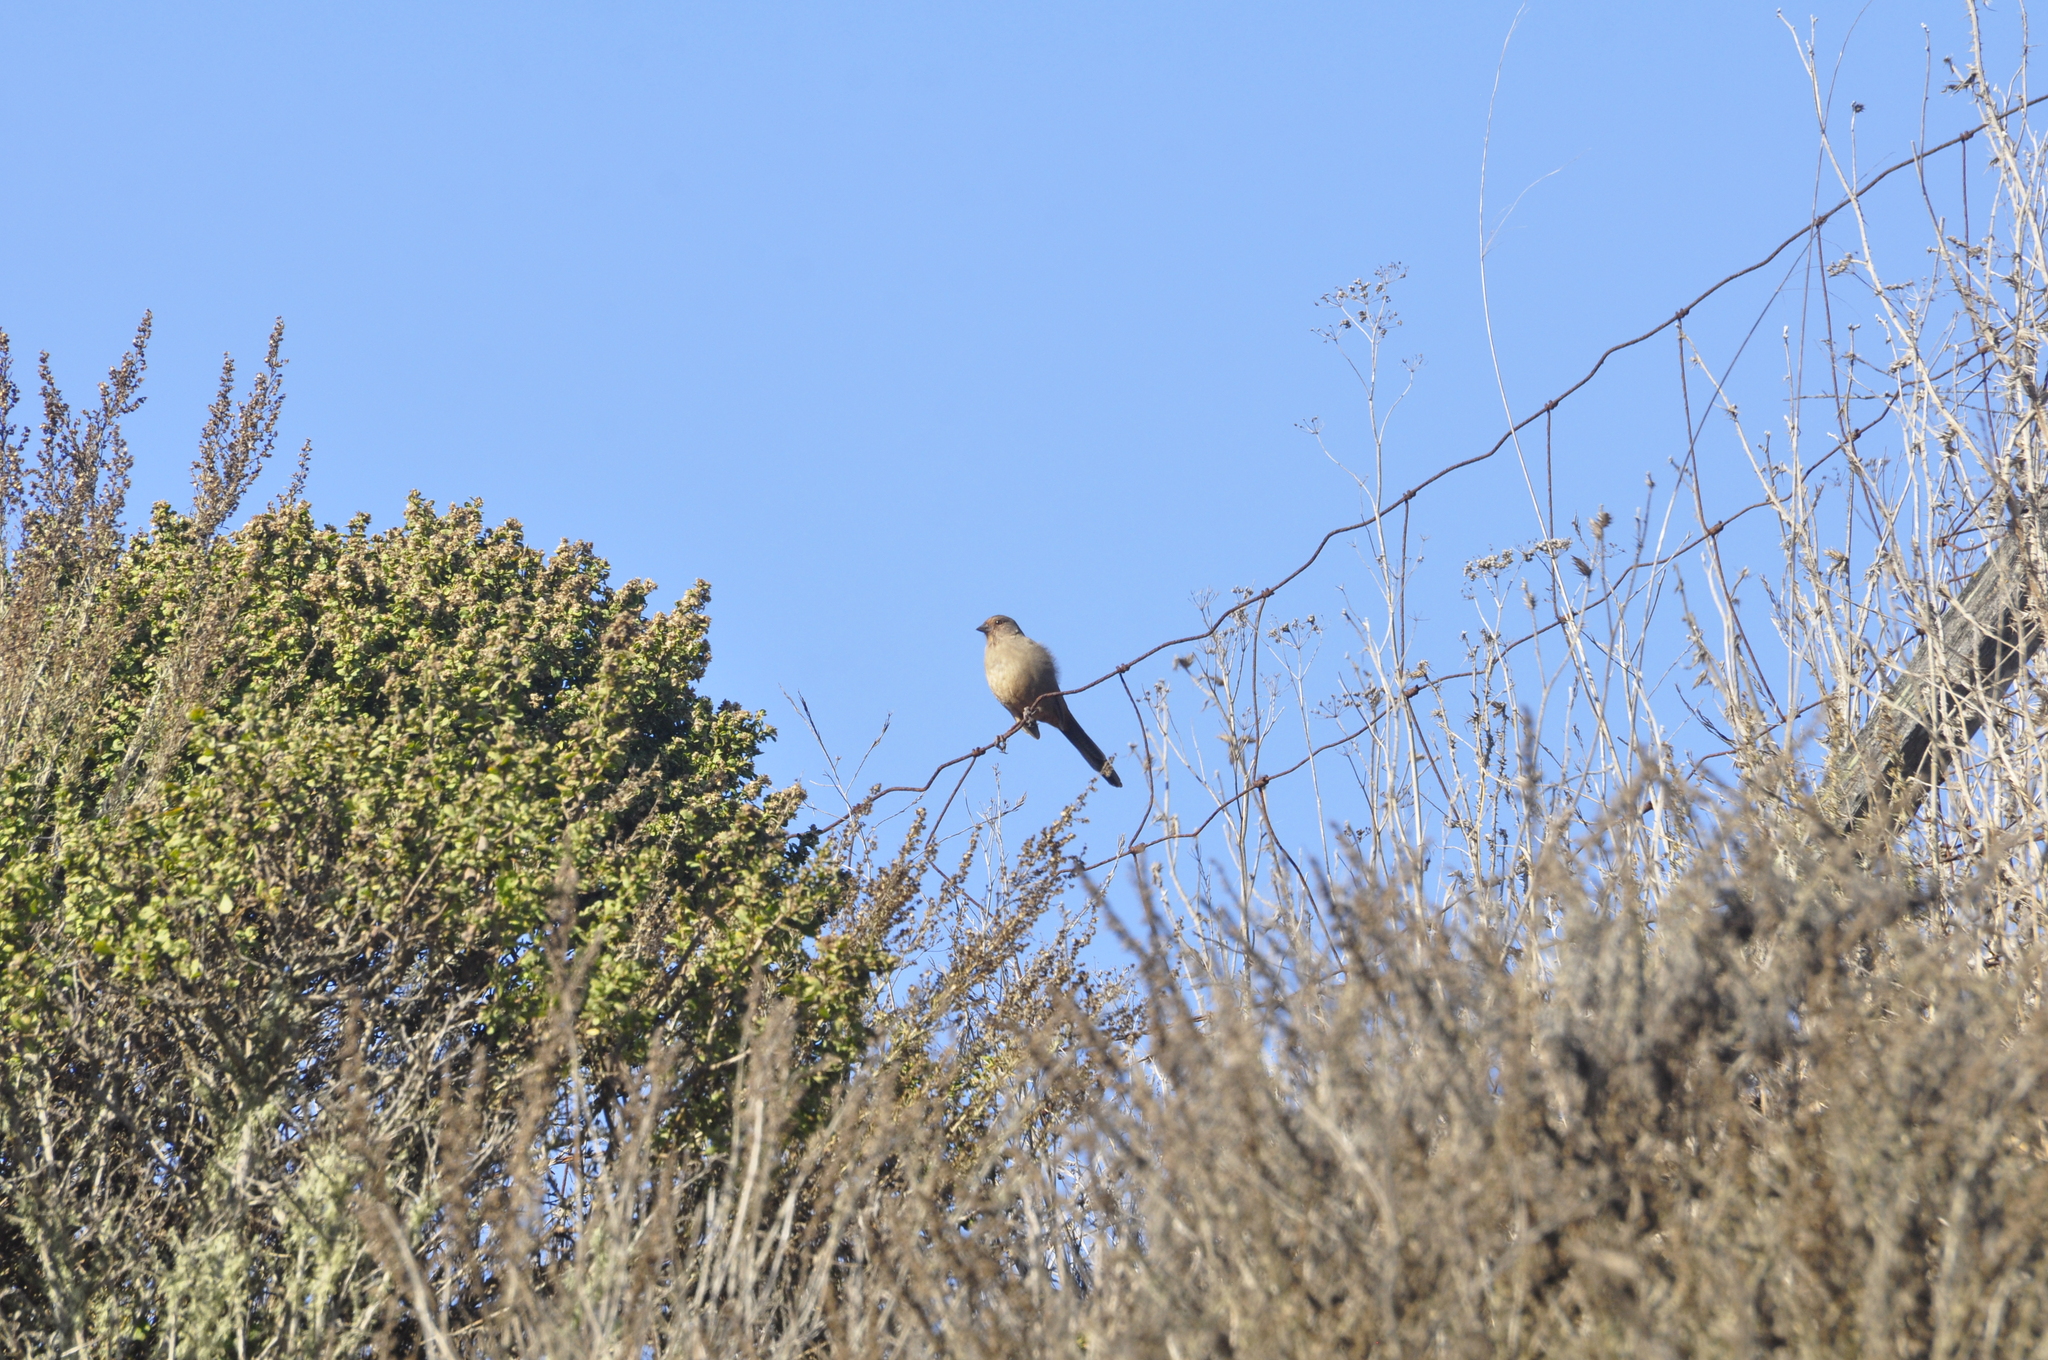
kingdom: Animalia
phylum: Chordata
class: Aves
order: Passeriformes
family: Passerellidae
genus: Melozone
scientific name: Melozone crissalis
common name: California towhee
